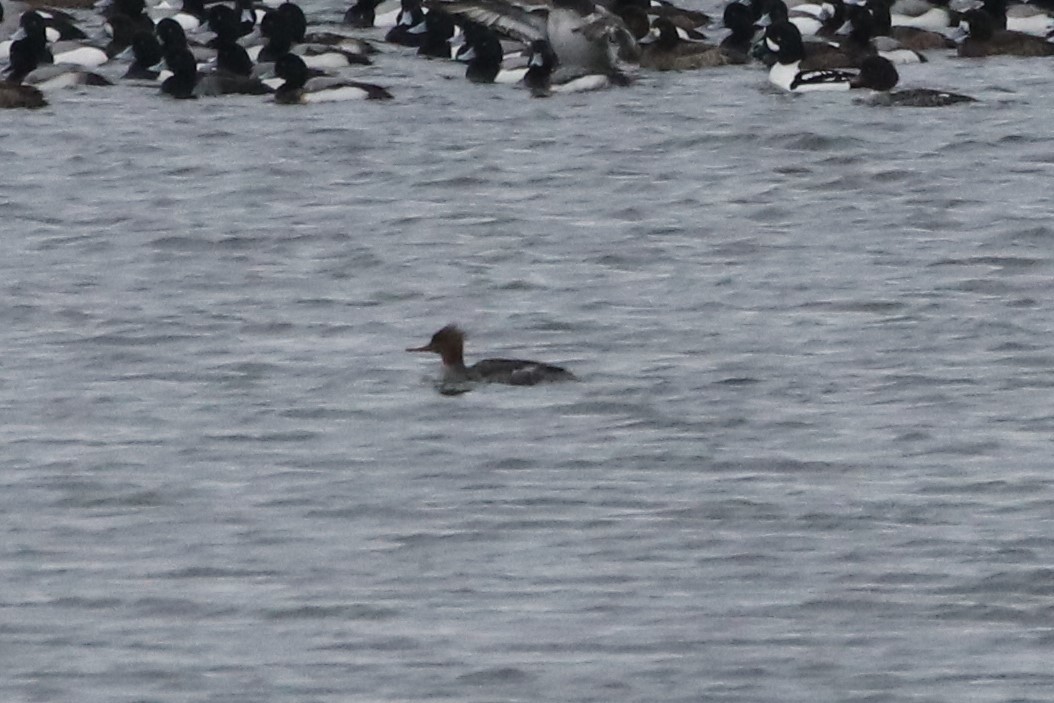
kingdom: Animalia
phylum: Chordata
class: Aves
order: Anseriformes
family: Anatidae
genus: Mergus
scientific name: Mergus serrator
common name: Red-breasted merganser
